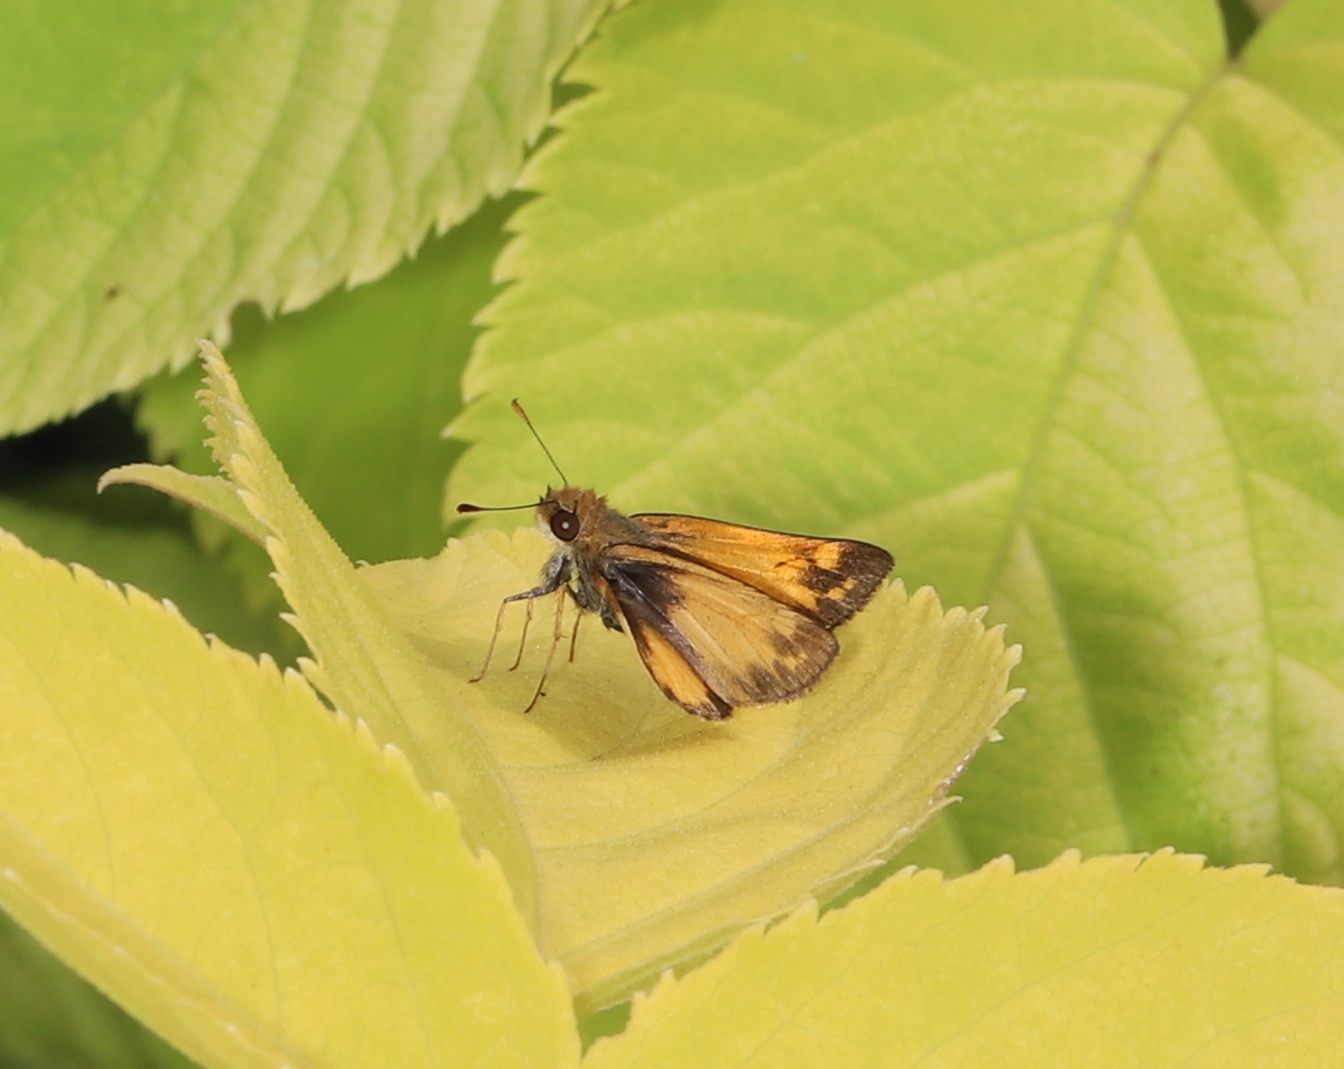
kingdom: Animalia
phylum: Arthropoda
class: Insecta
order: Lepidoptera
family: Hesperiidae
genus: Lon
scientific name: Lon zabulon
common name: Zabulon skipper
